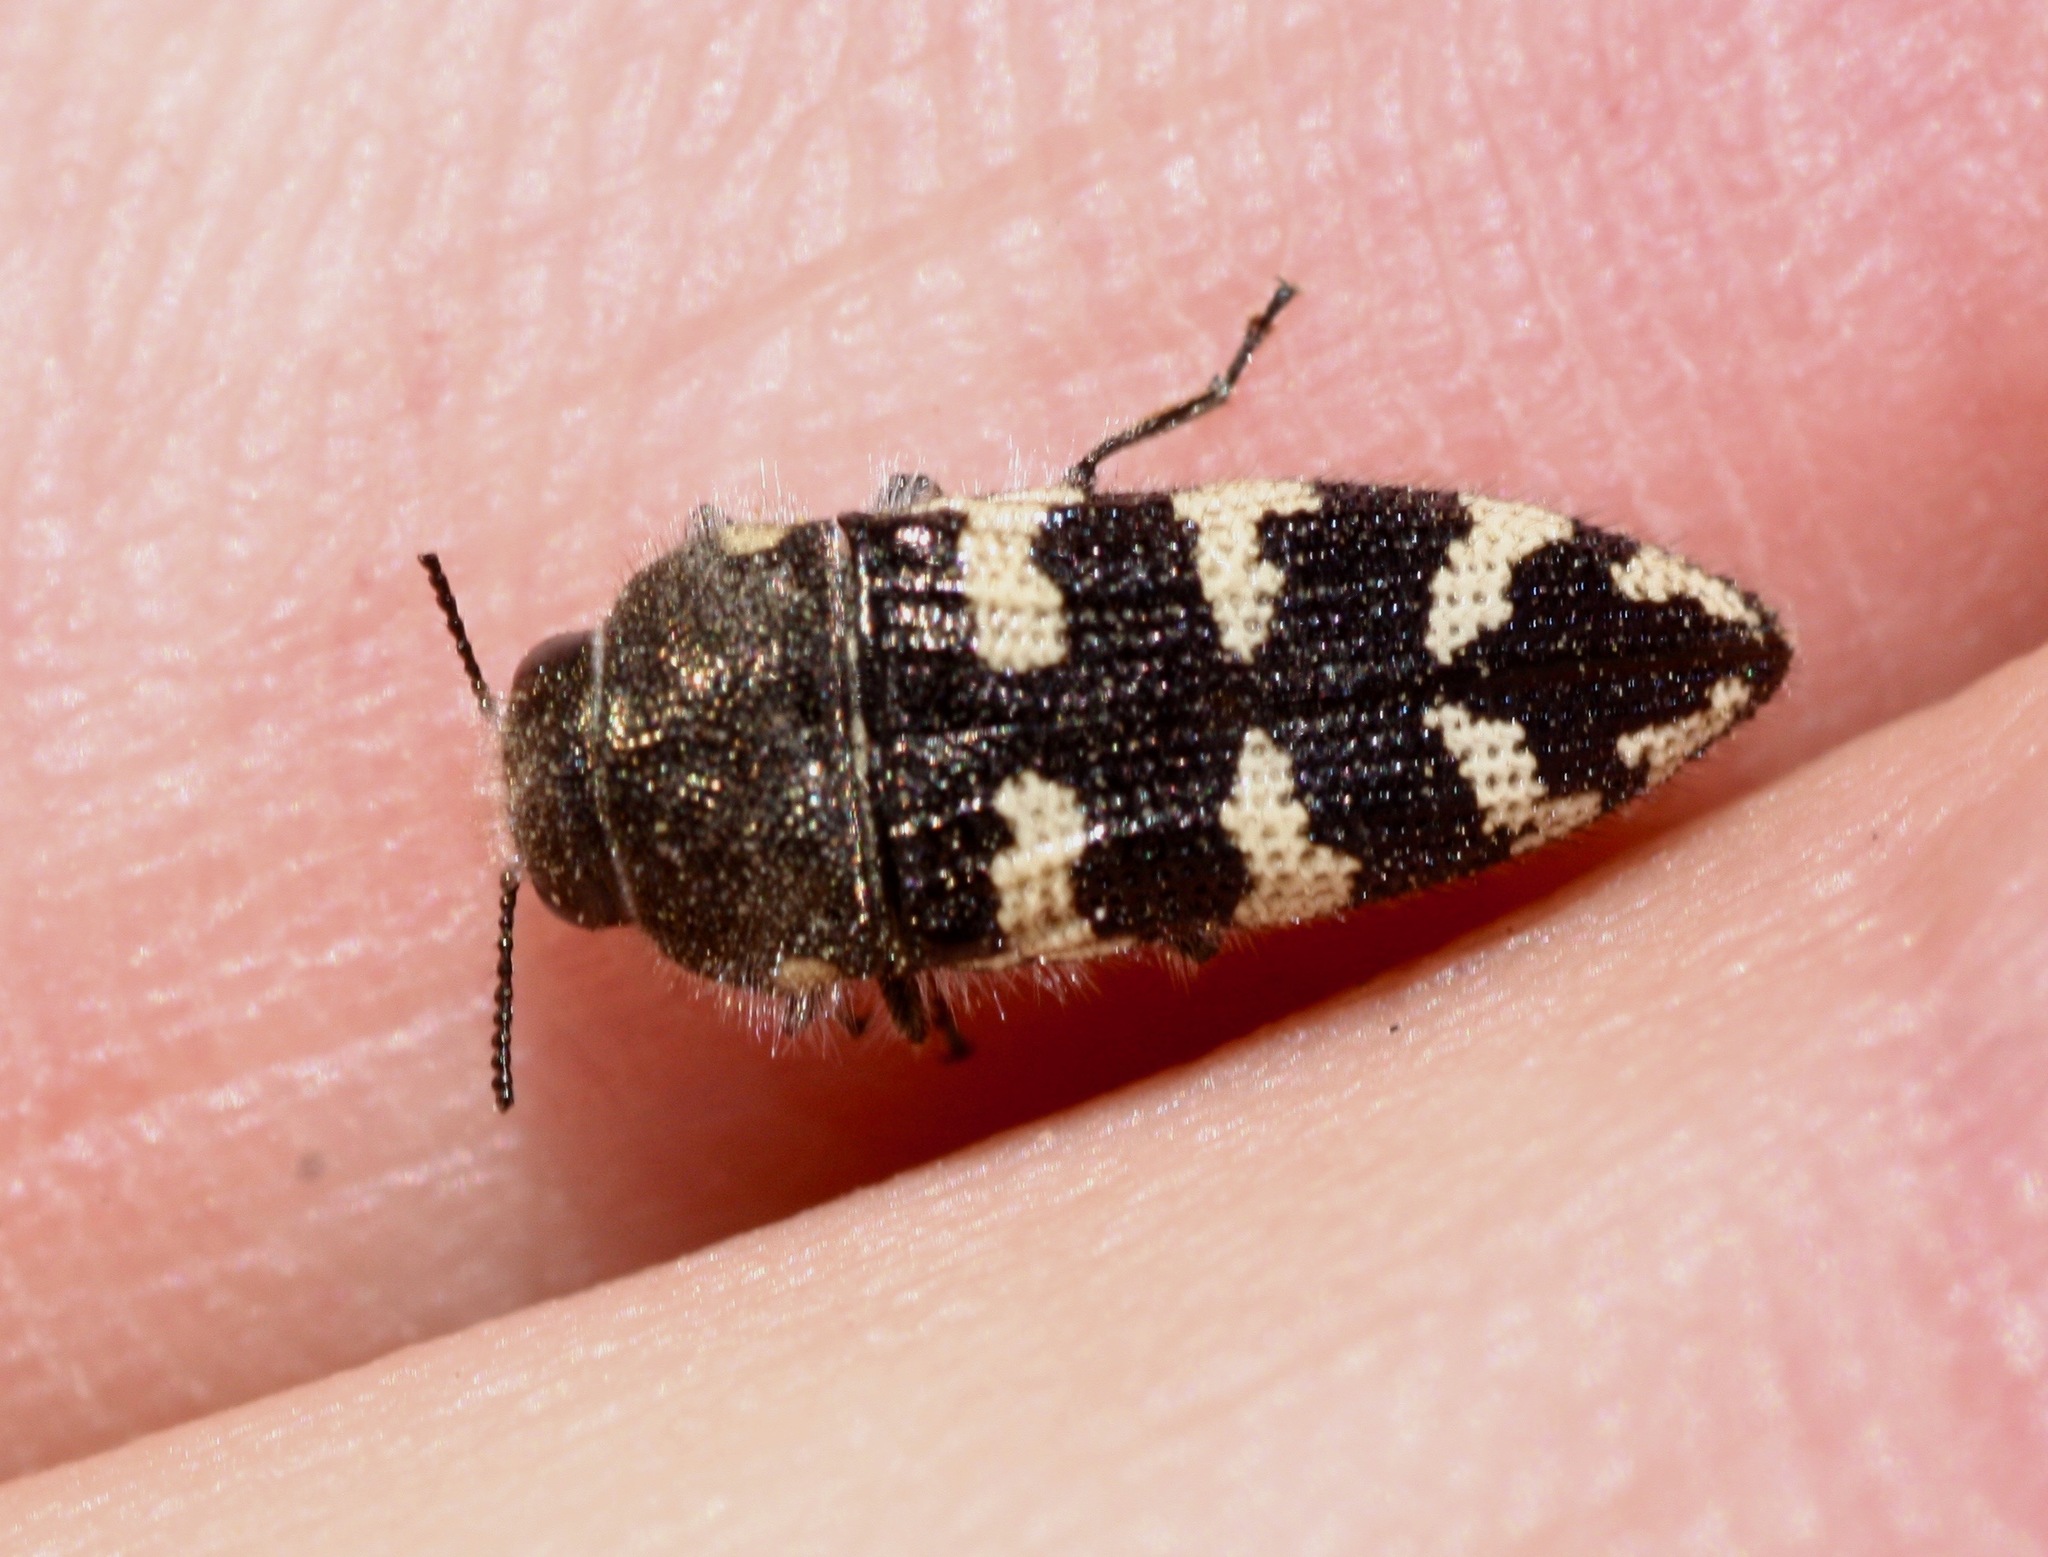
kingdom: Animalia
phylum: Arthropoda
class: Insecta
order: Coleoptera
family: Buprestidae
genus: Acmaeodera
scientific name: Acmaeodera bowditchi
